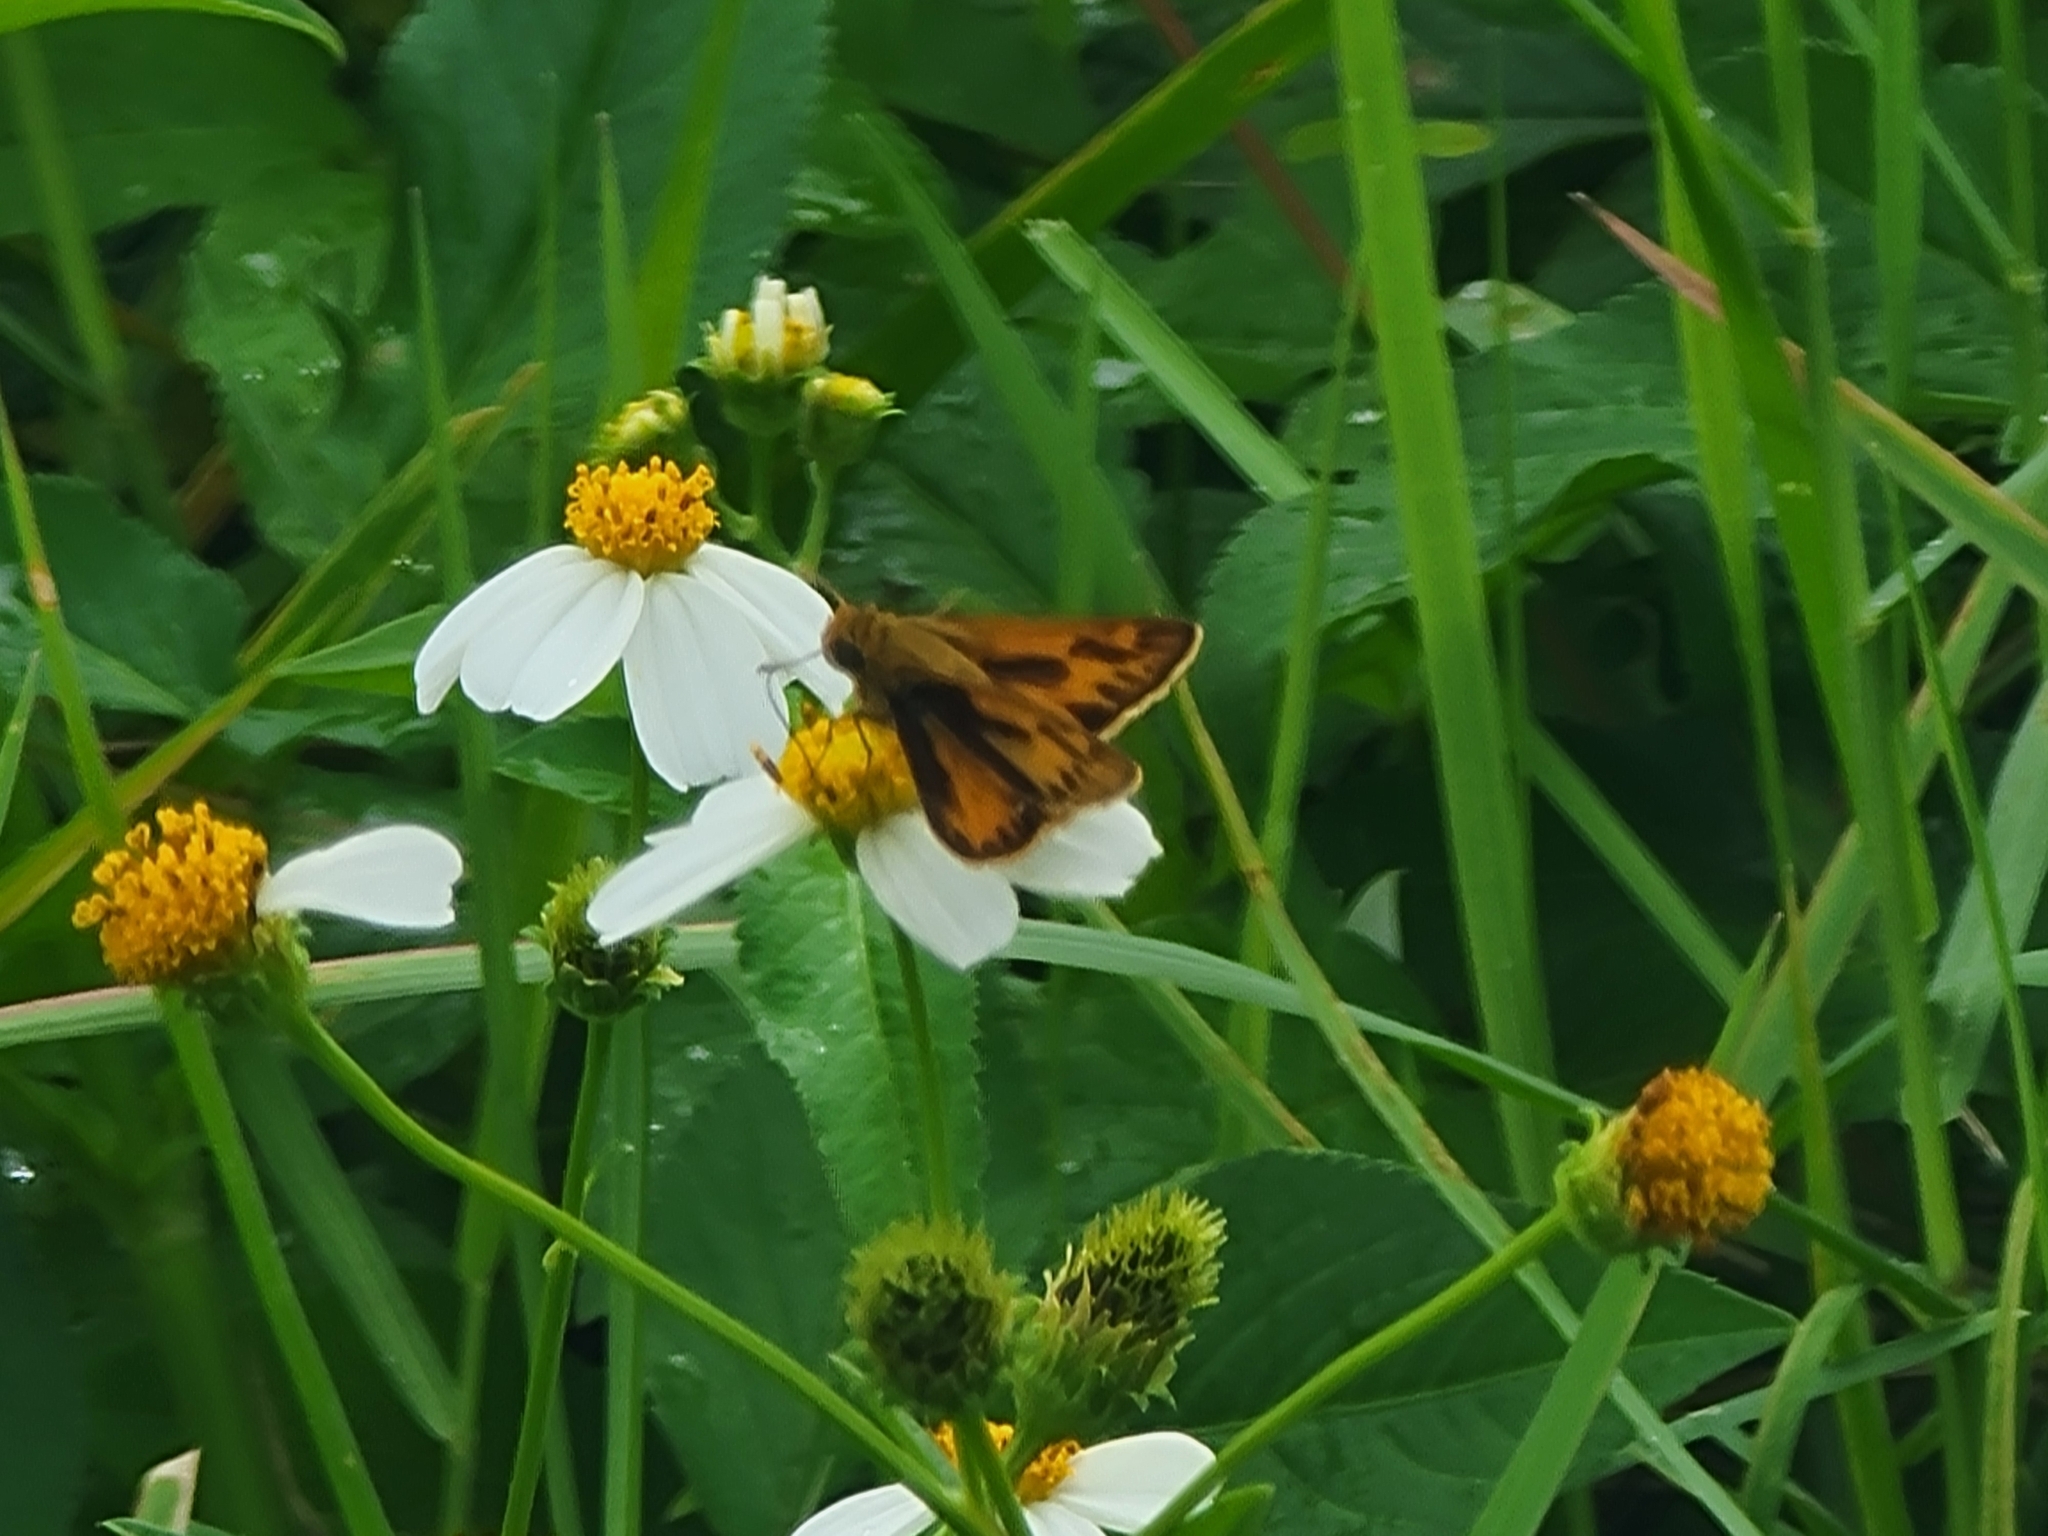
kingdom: Animalia
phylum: Arthropoda
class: Insecta
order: Lepidoptera
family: Hesperiidae
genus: Hylephila
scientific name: Hylephila phyleus
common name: Fiery skipper
